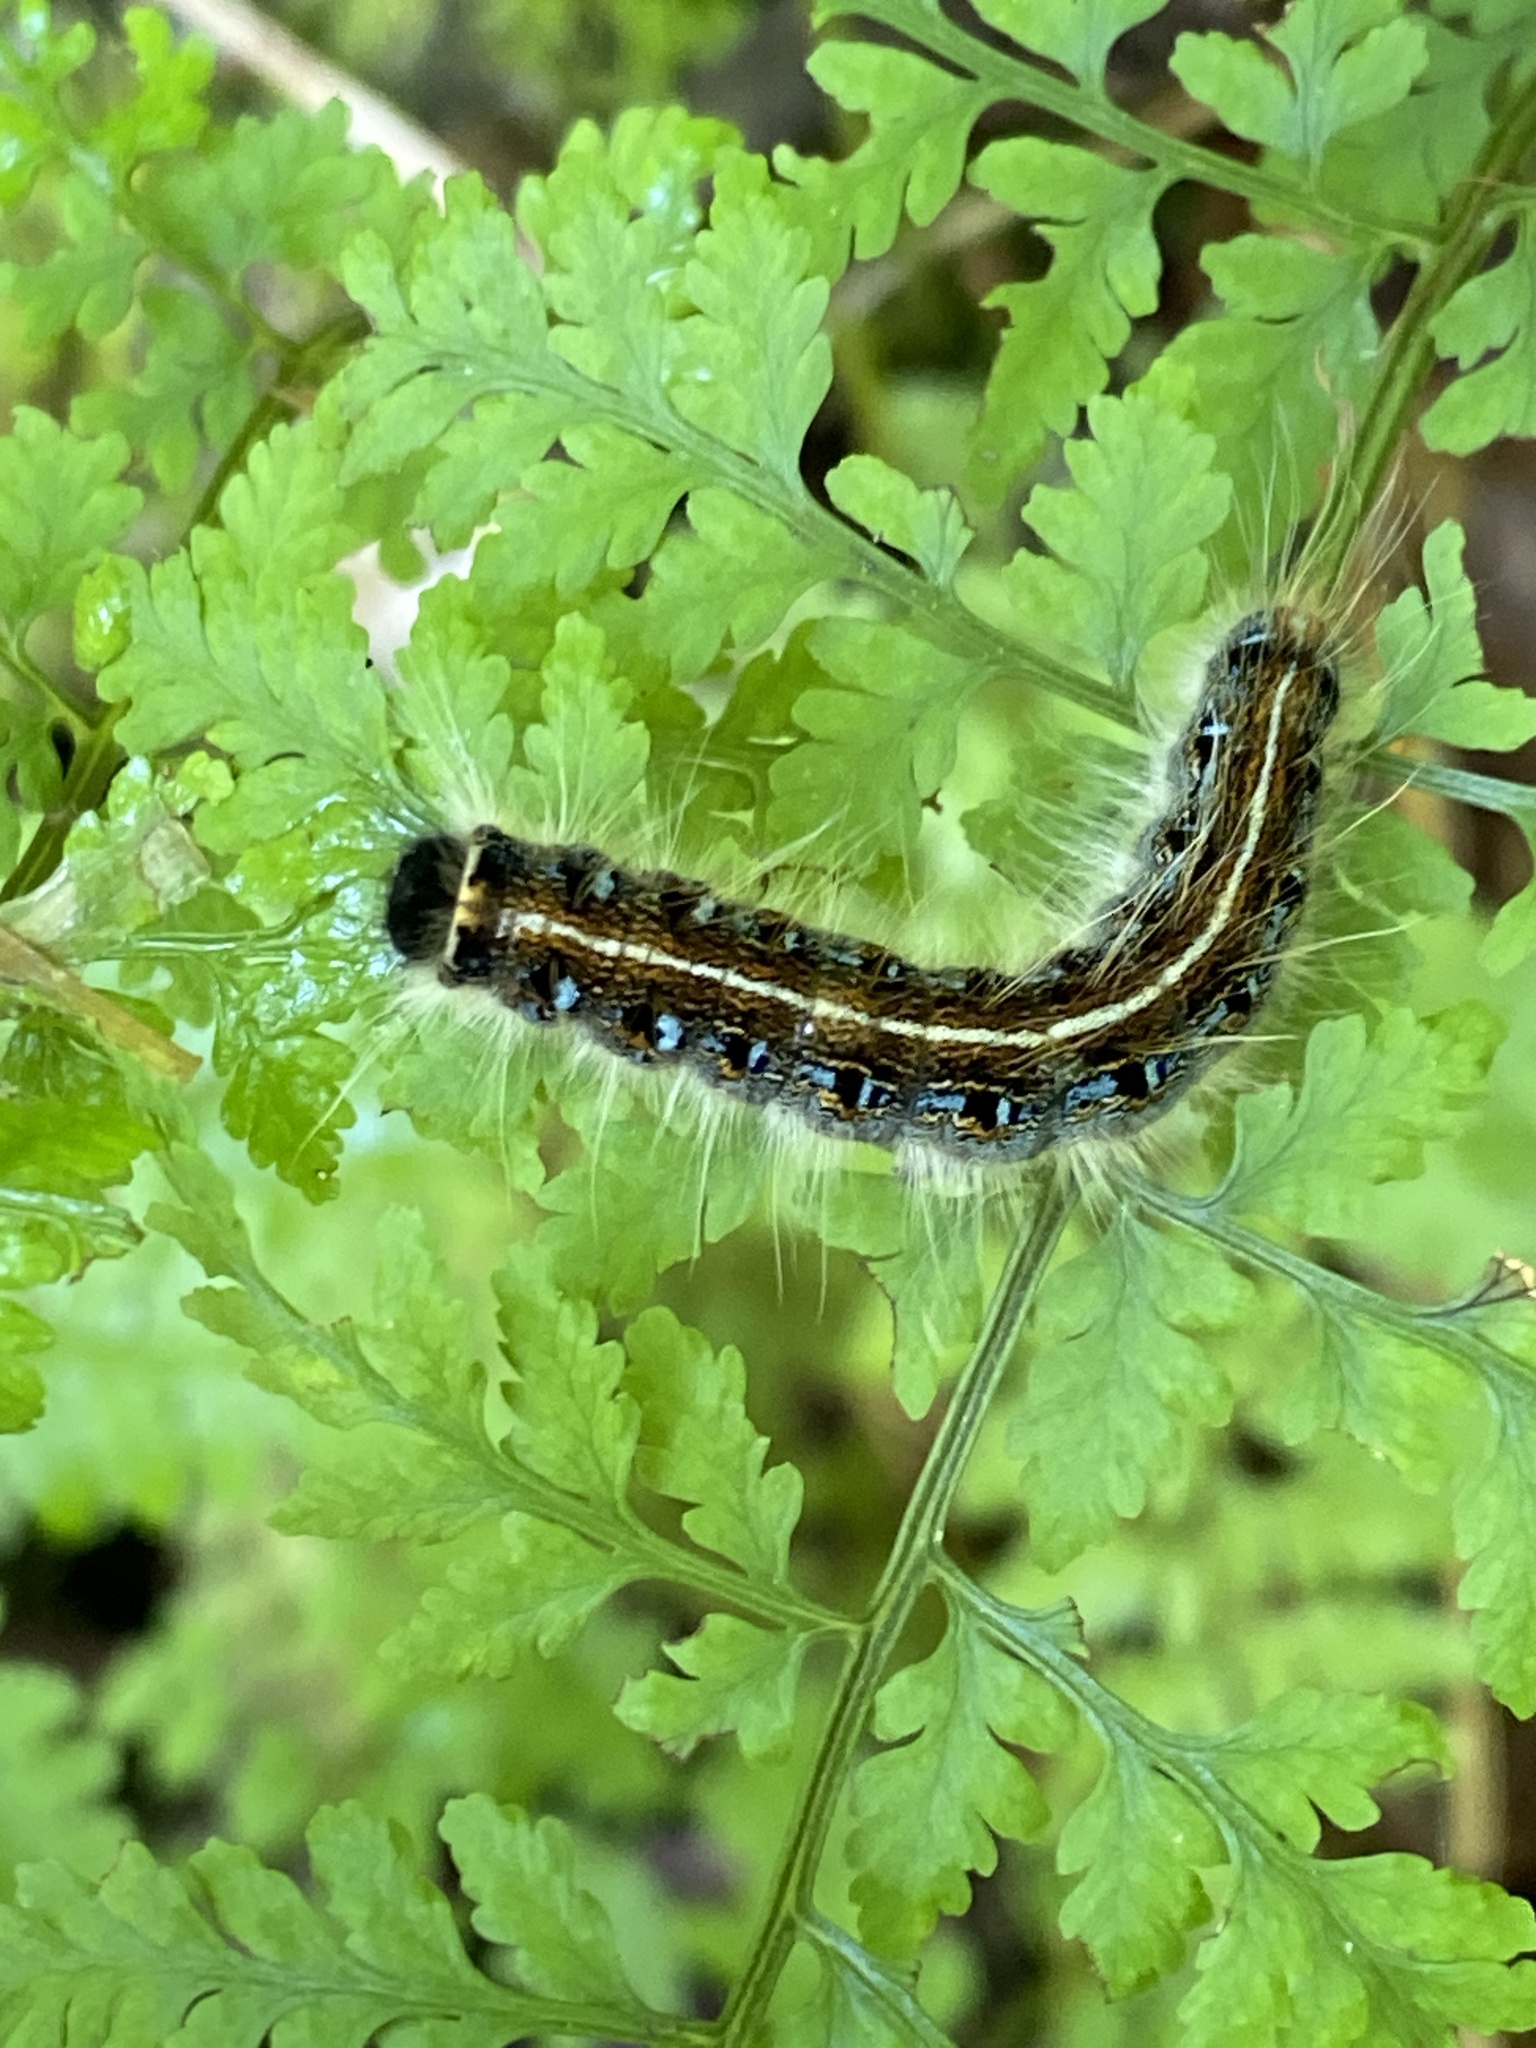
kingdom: Animalia
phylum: Arthropoda
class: Insecta
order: Lepidoptera
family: Lasiocampidae
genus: Malacosoma
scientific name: Malacosoma americana
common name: Eastern tent caterpillar moth
